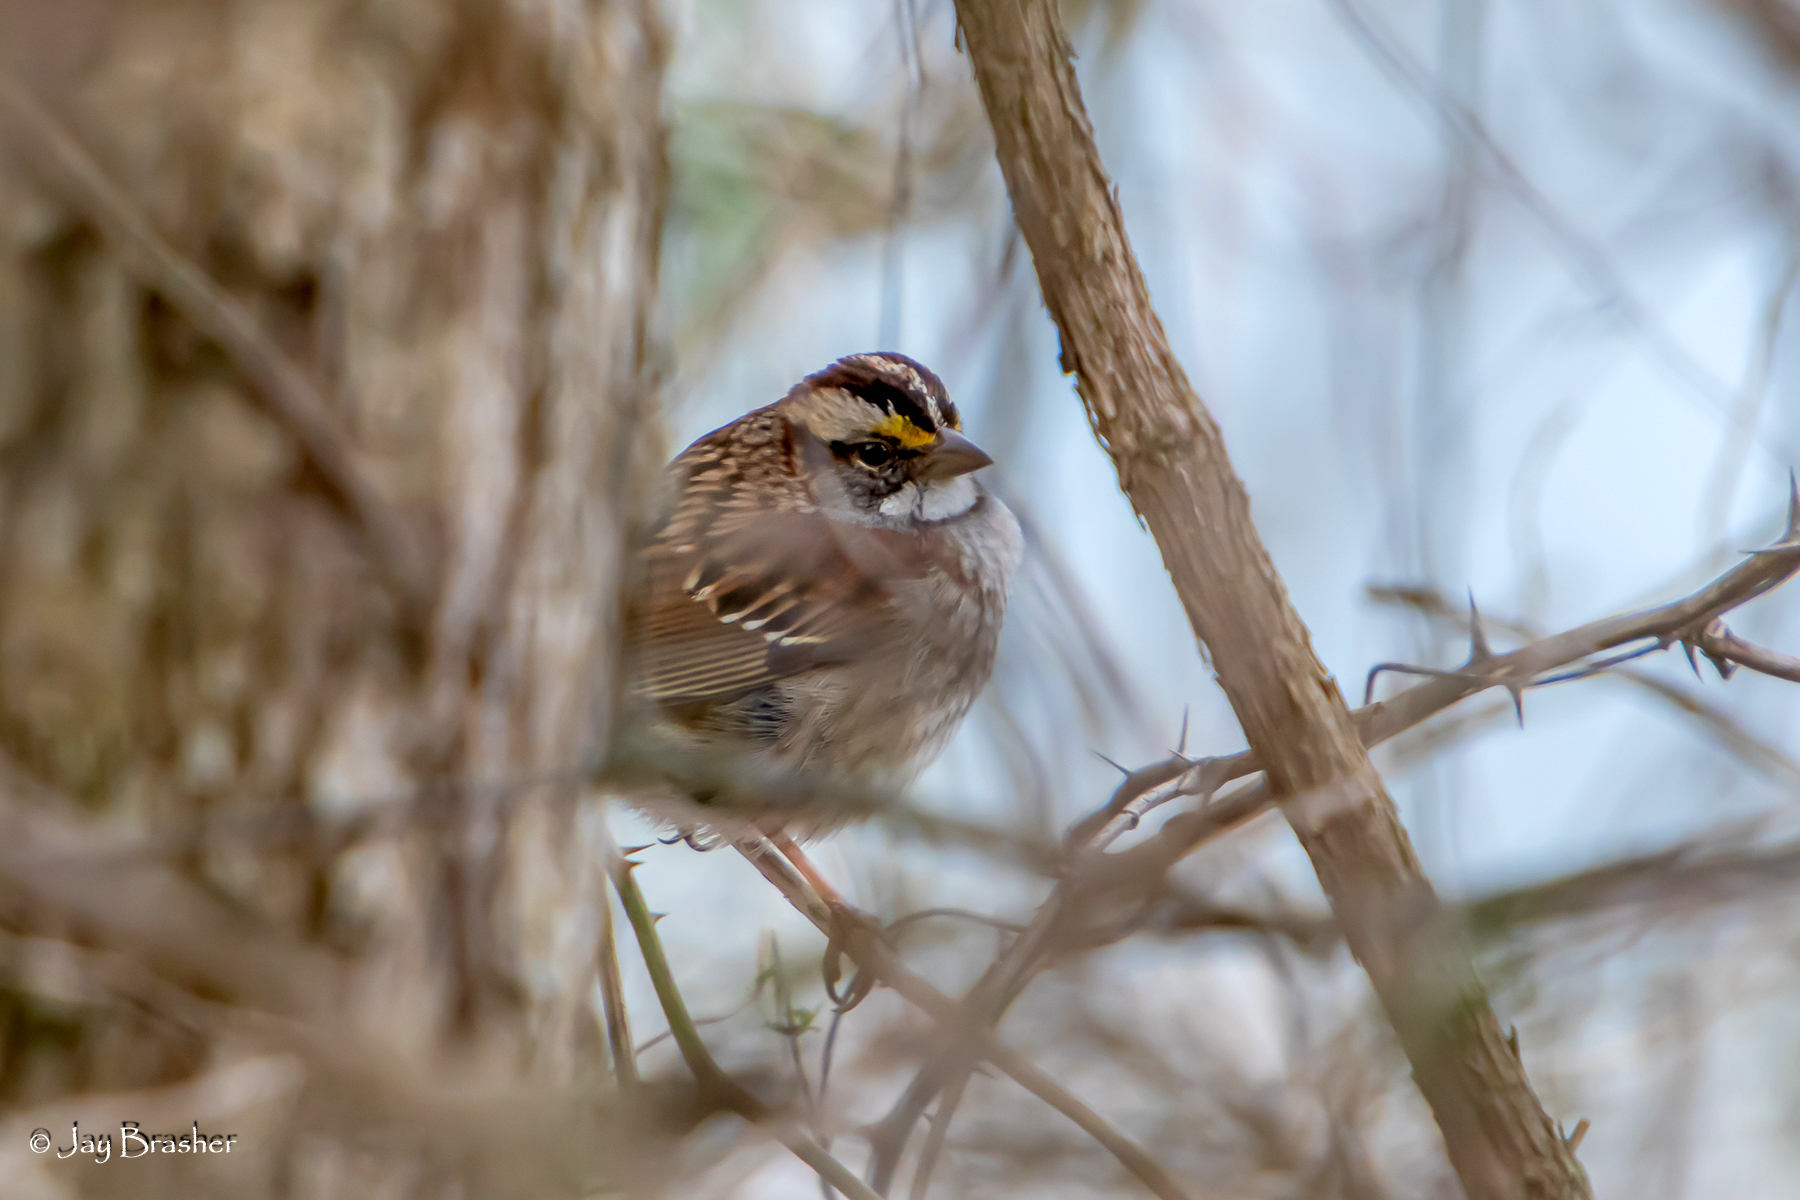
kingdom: Animalia
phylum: Chordata
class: Aves
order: Passeriformes
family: Passerellidae
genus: Zonotrichia
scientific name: Zonotrichia albicollis
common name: White-throated sparrow
